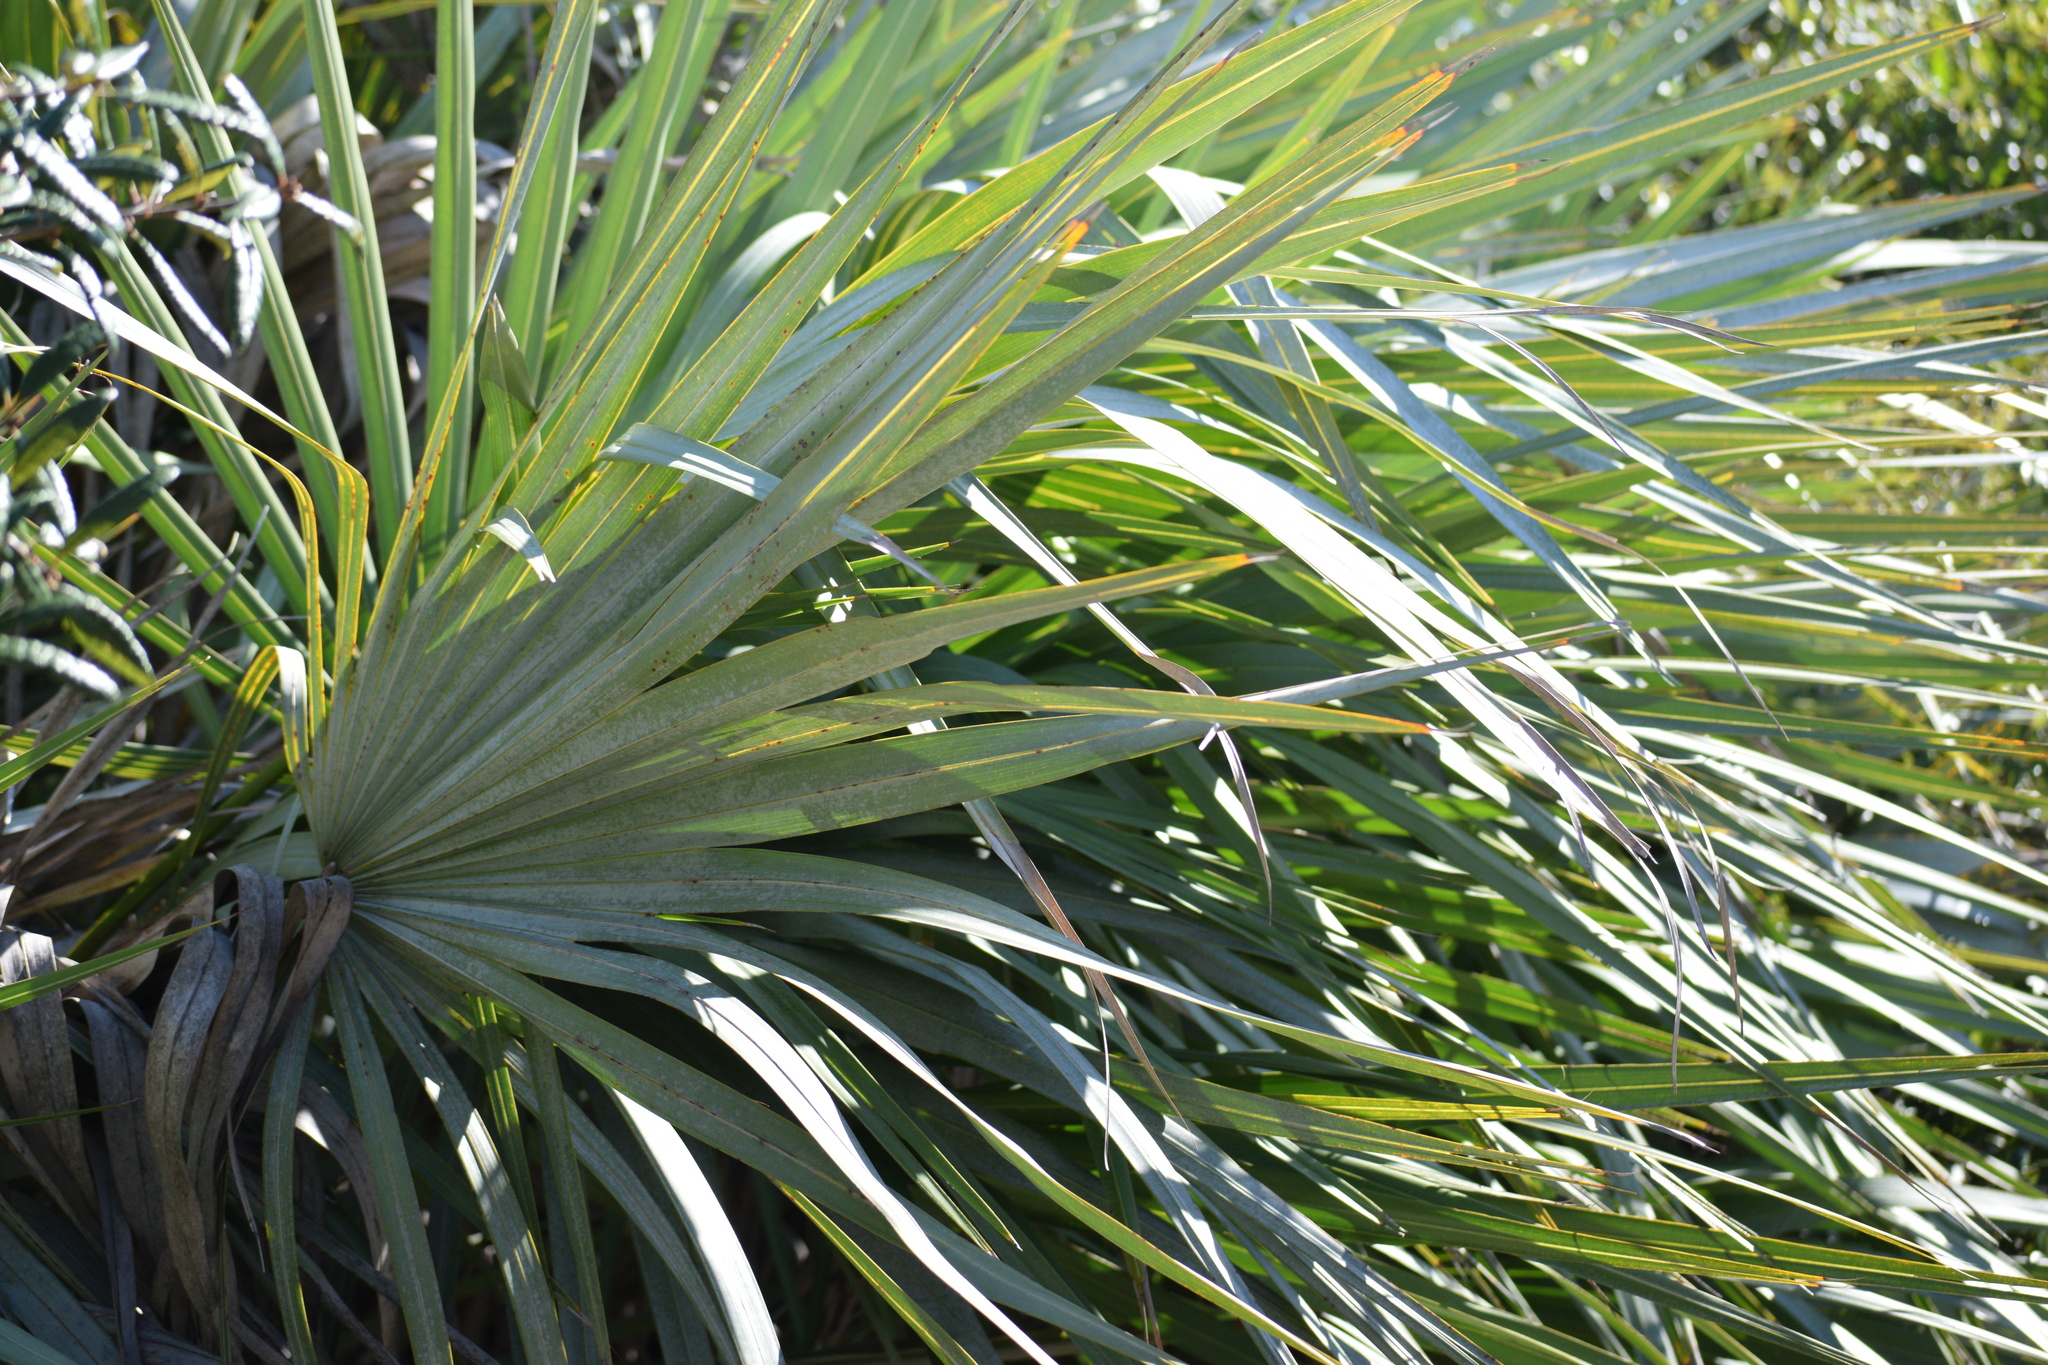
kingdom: Plantae
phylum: Tracheophyta
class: Liliopsida
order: Arecales
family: Arecaceae
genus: Serenoa
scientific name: Serenoa repens
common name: Saw-palmetto
